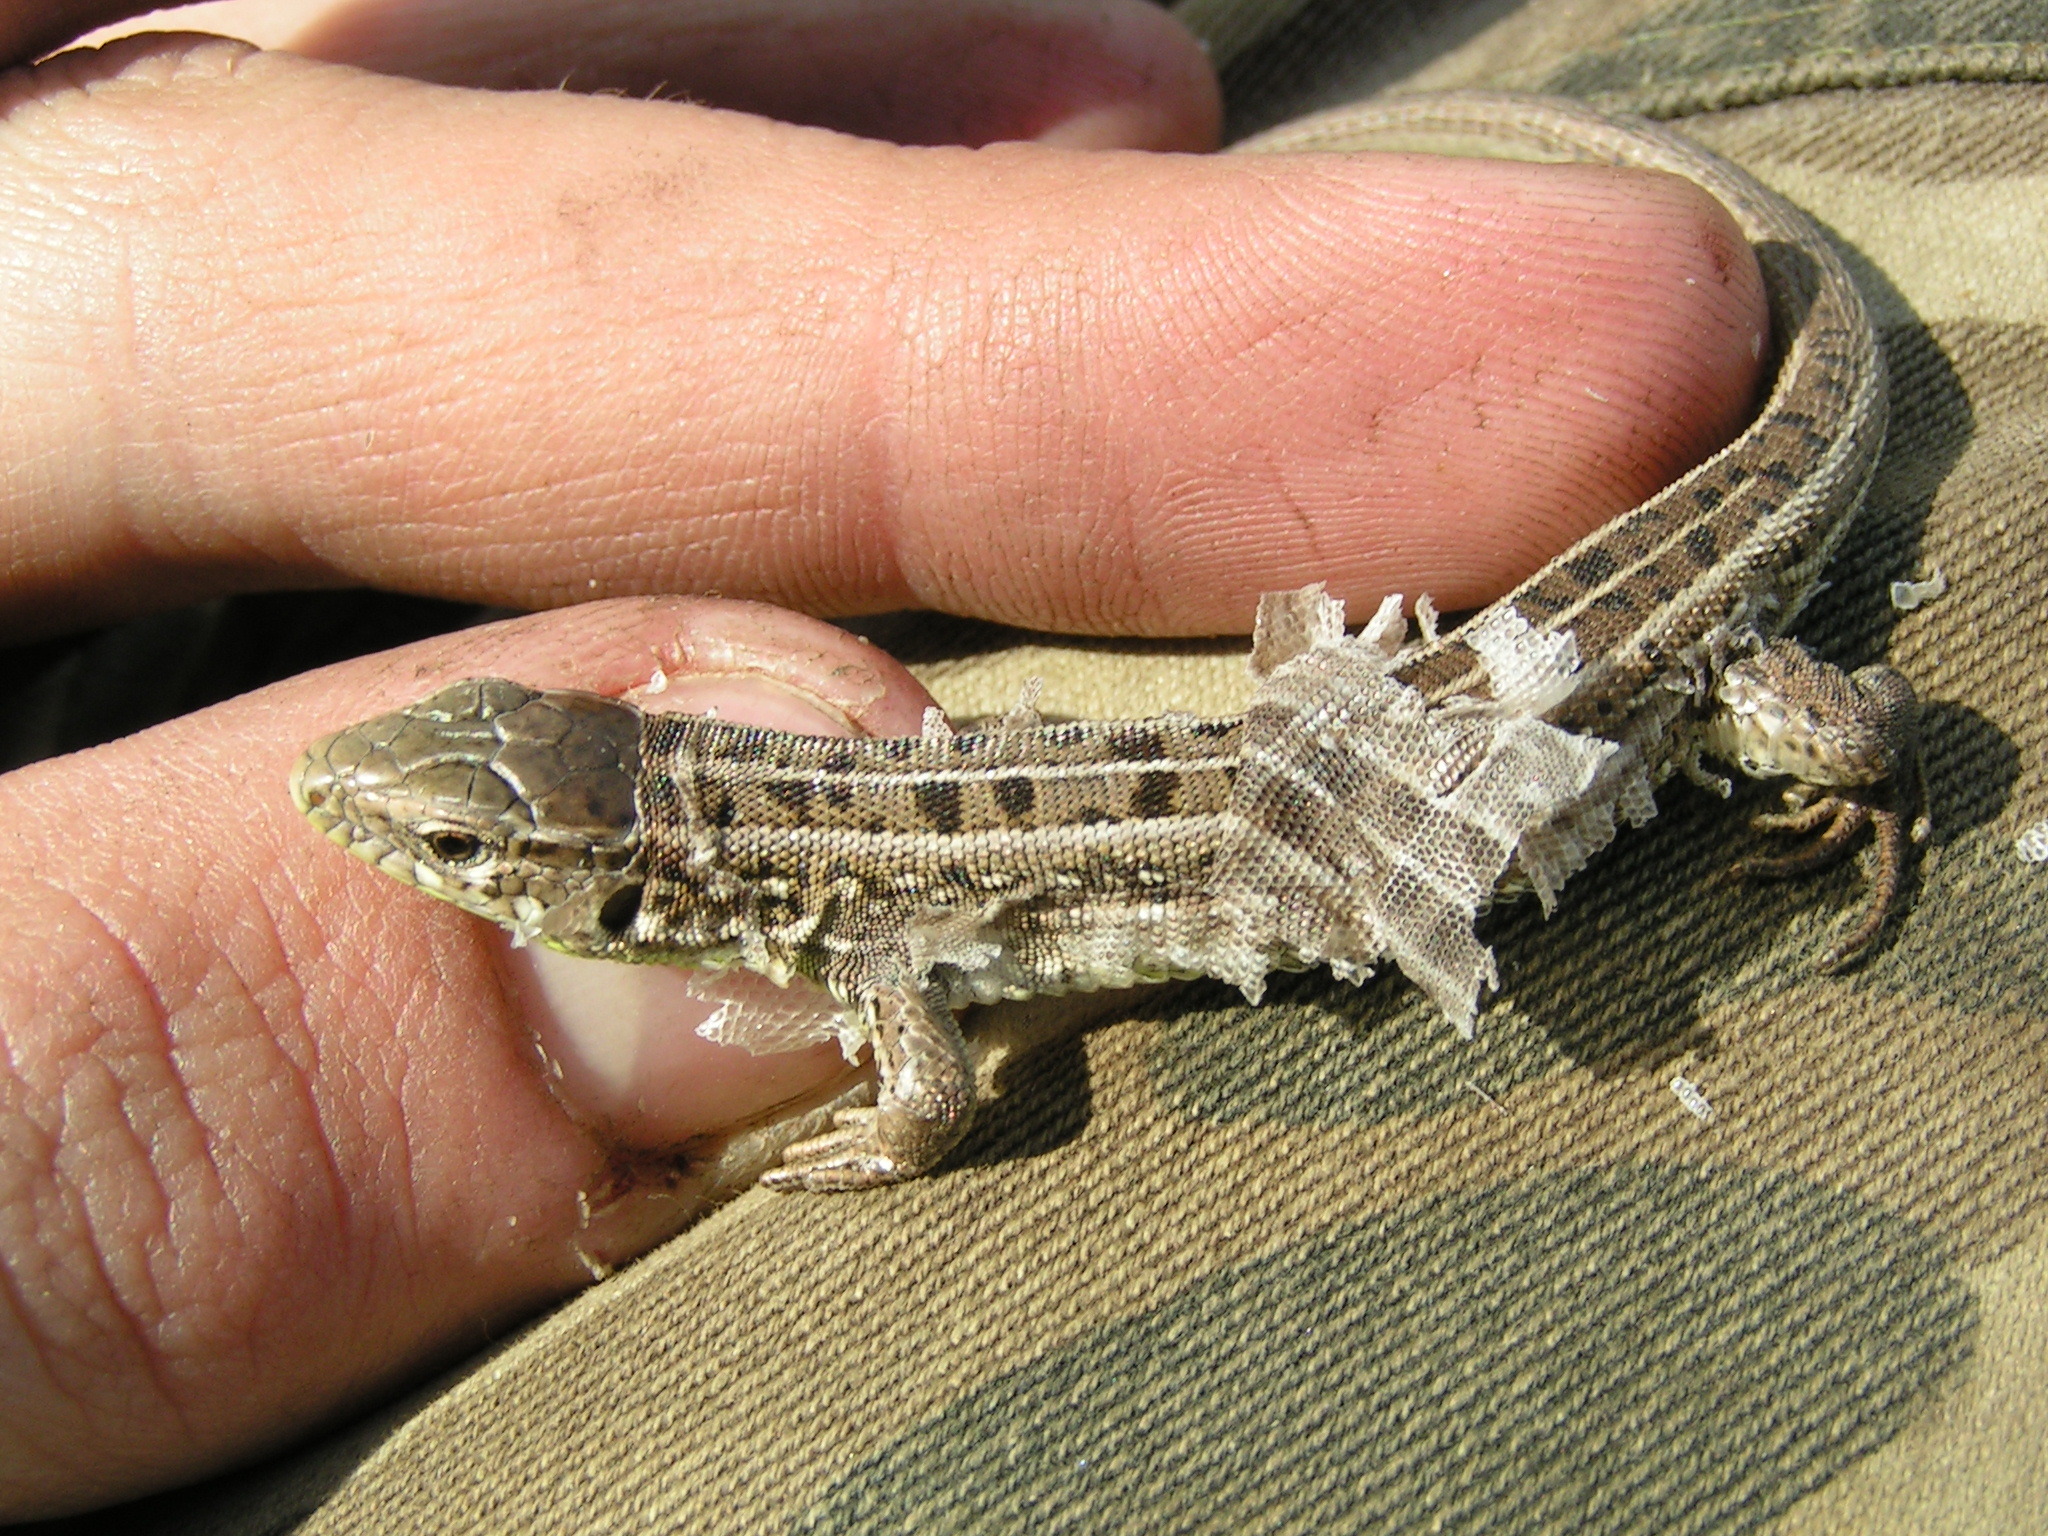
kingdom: Animalia
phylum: Chordata
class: Squamata
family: Lacertidae
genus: Lacerta
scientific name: Lacerta agilis
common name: Sand lizard
